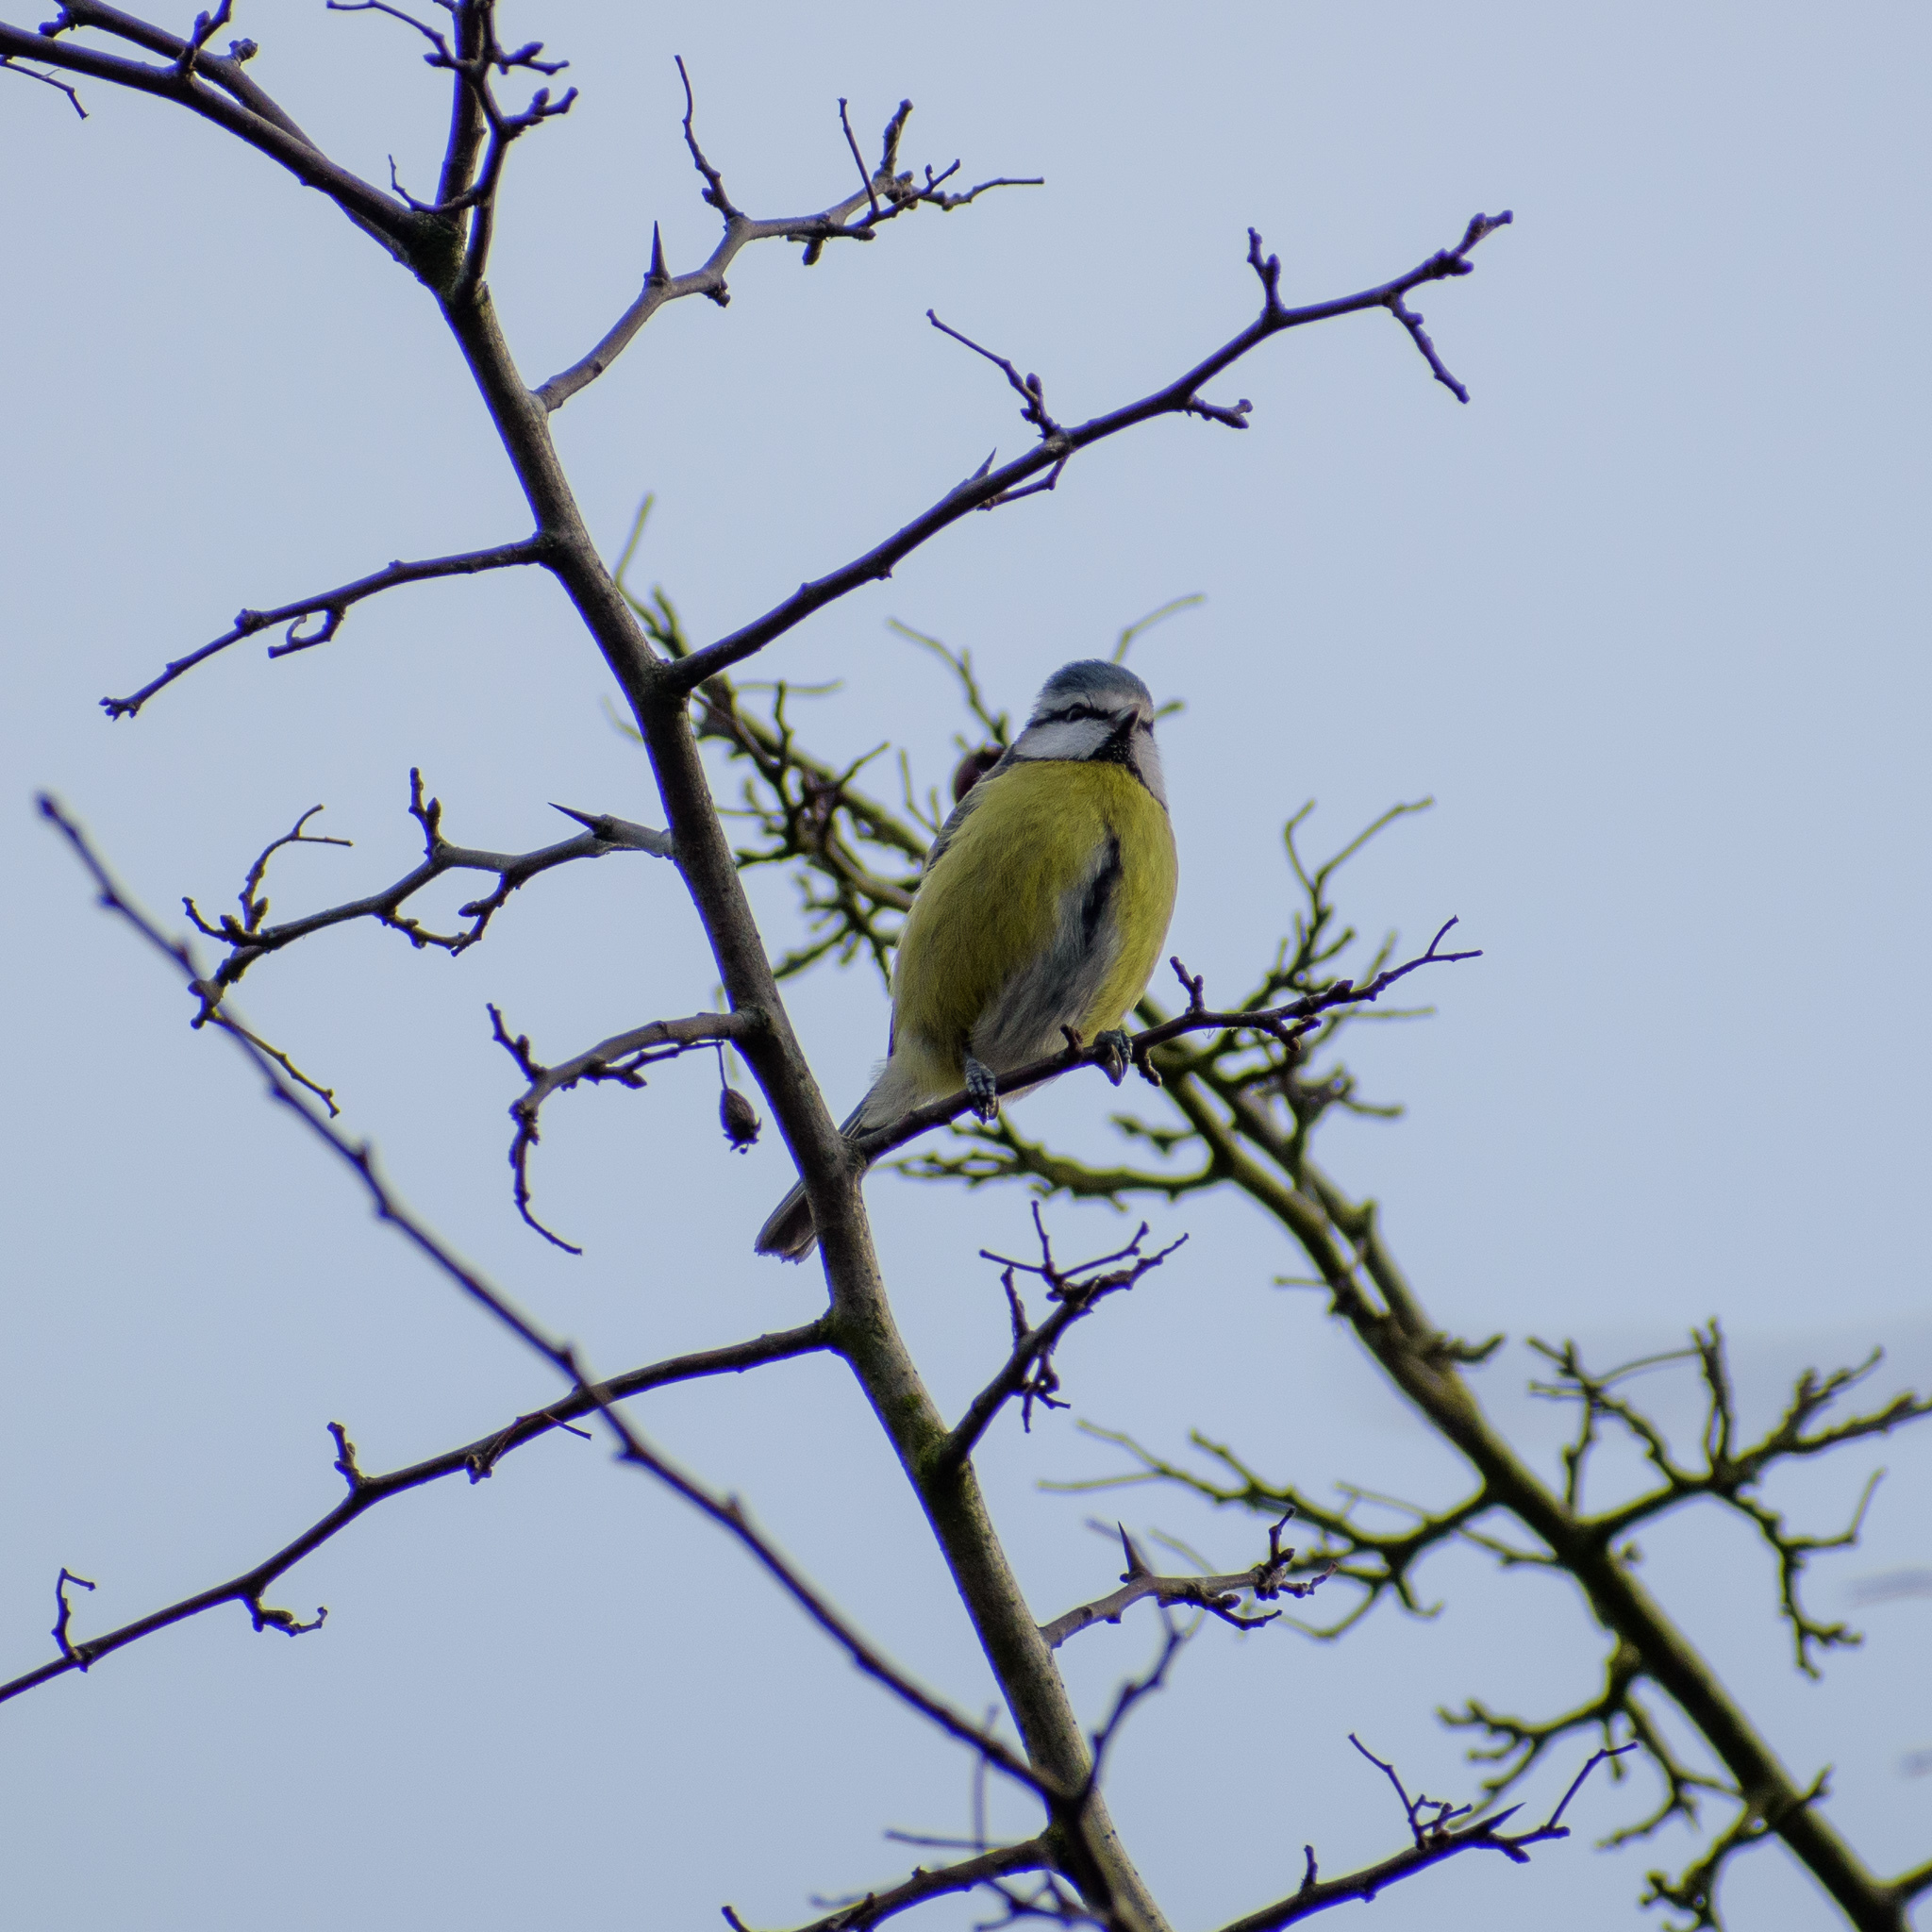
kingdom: Animalia
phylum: Chordata
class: Aves
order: Passeriformes
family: Paridae
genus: Cyanistes
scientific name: Cyanistes caeruleus
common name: Eurasian blue tit
